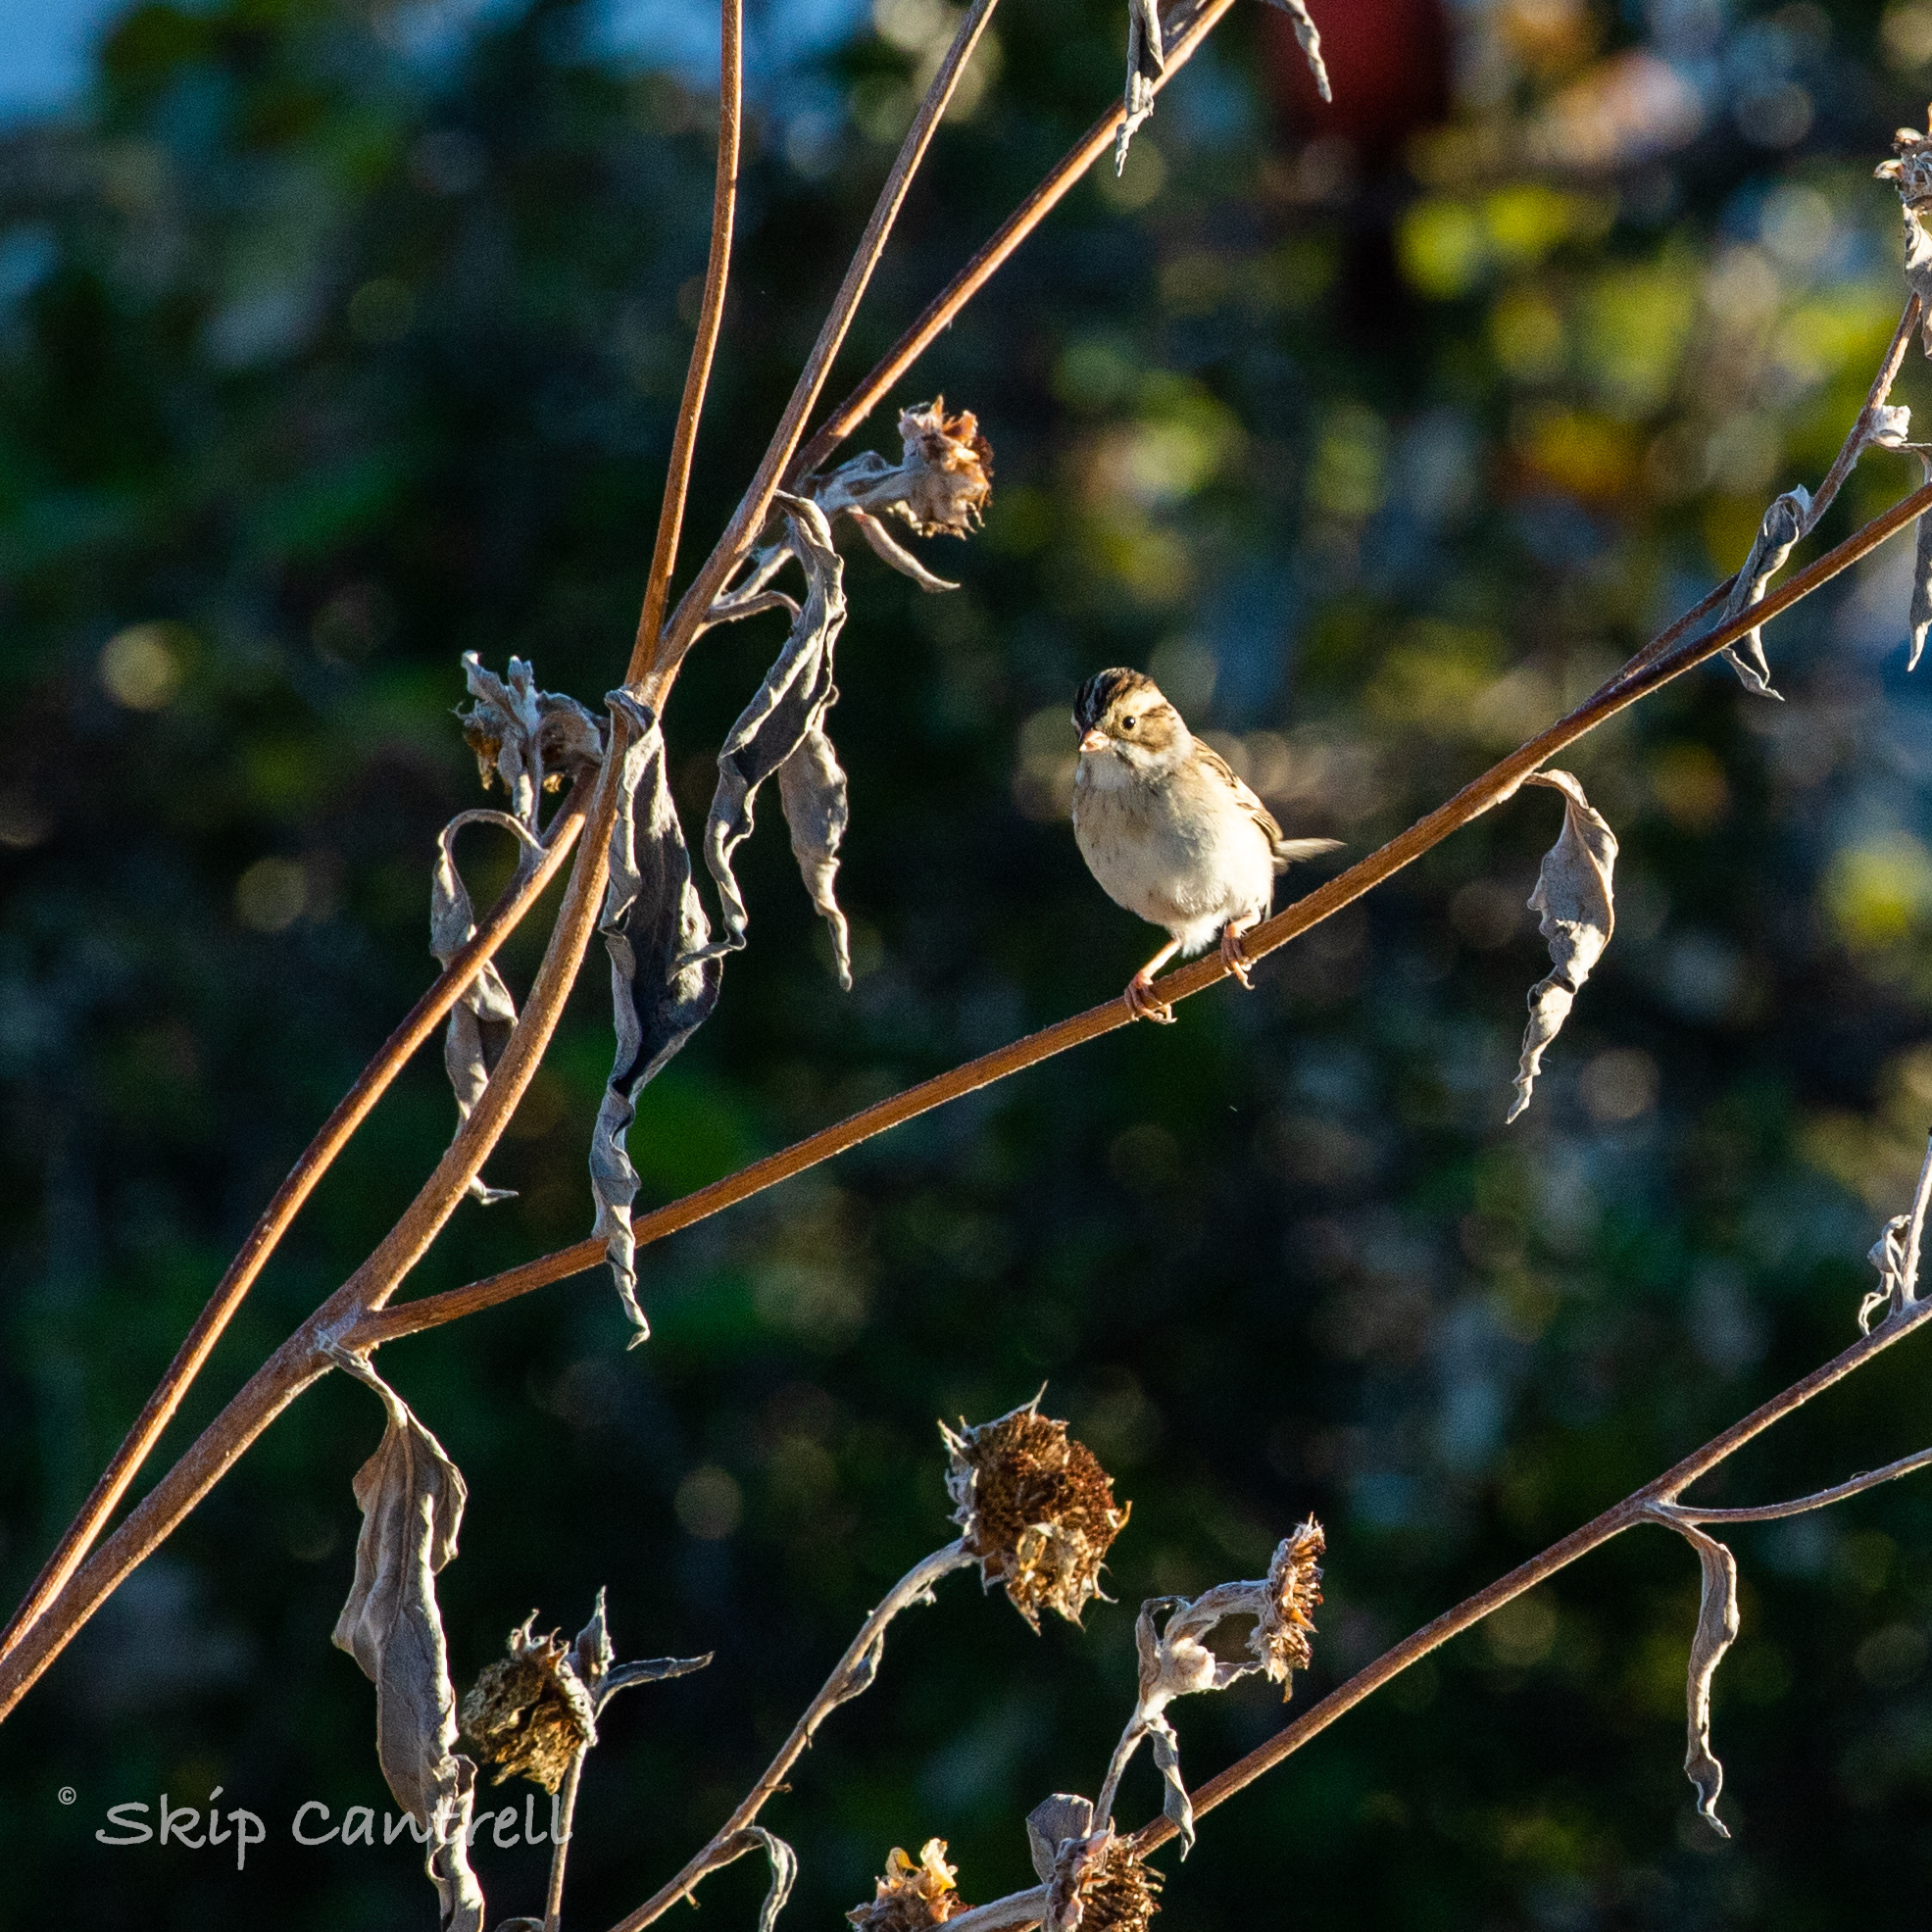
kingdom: Animalia
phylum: Chordata
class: Aves
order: Passeriformes
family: Passerellidae
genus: Spizella
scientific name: Spizella pallida
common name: Clay-colored sparrow
